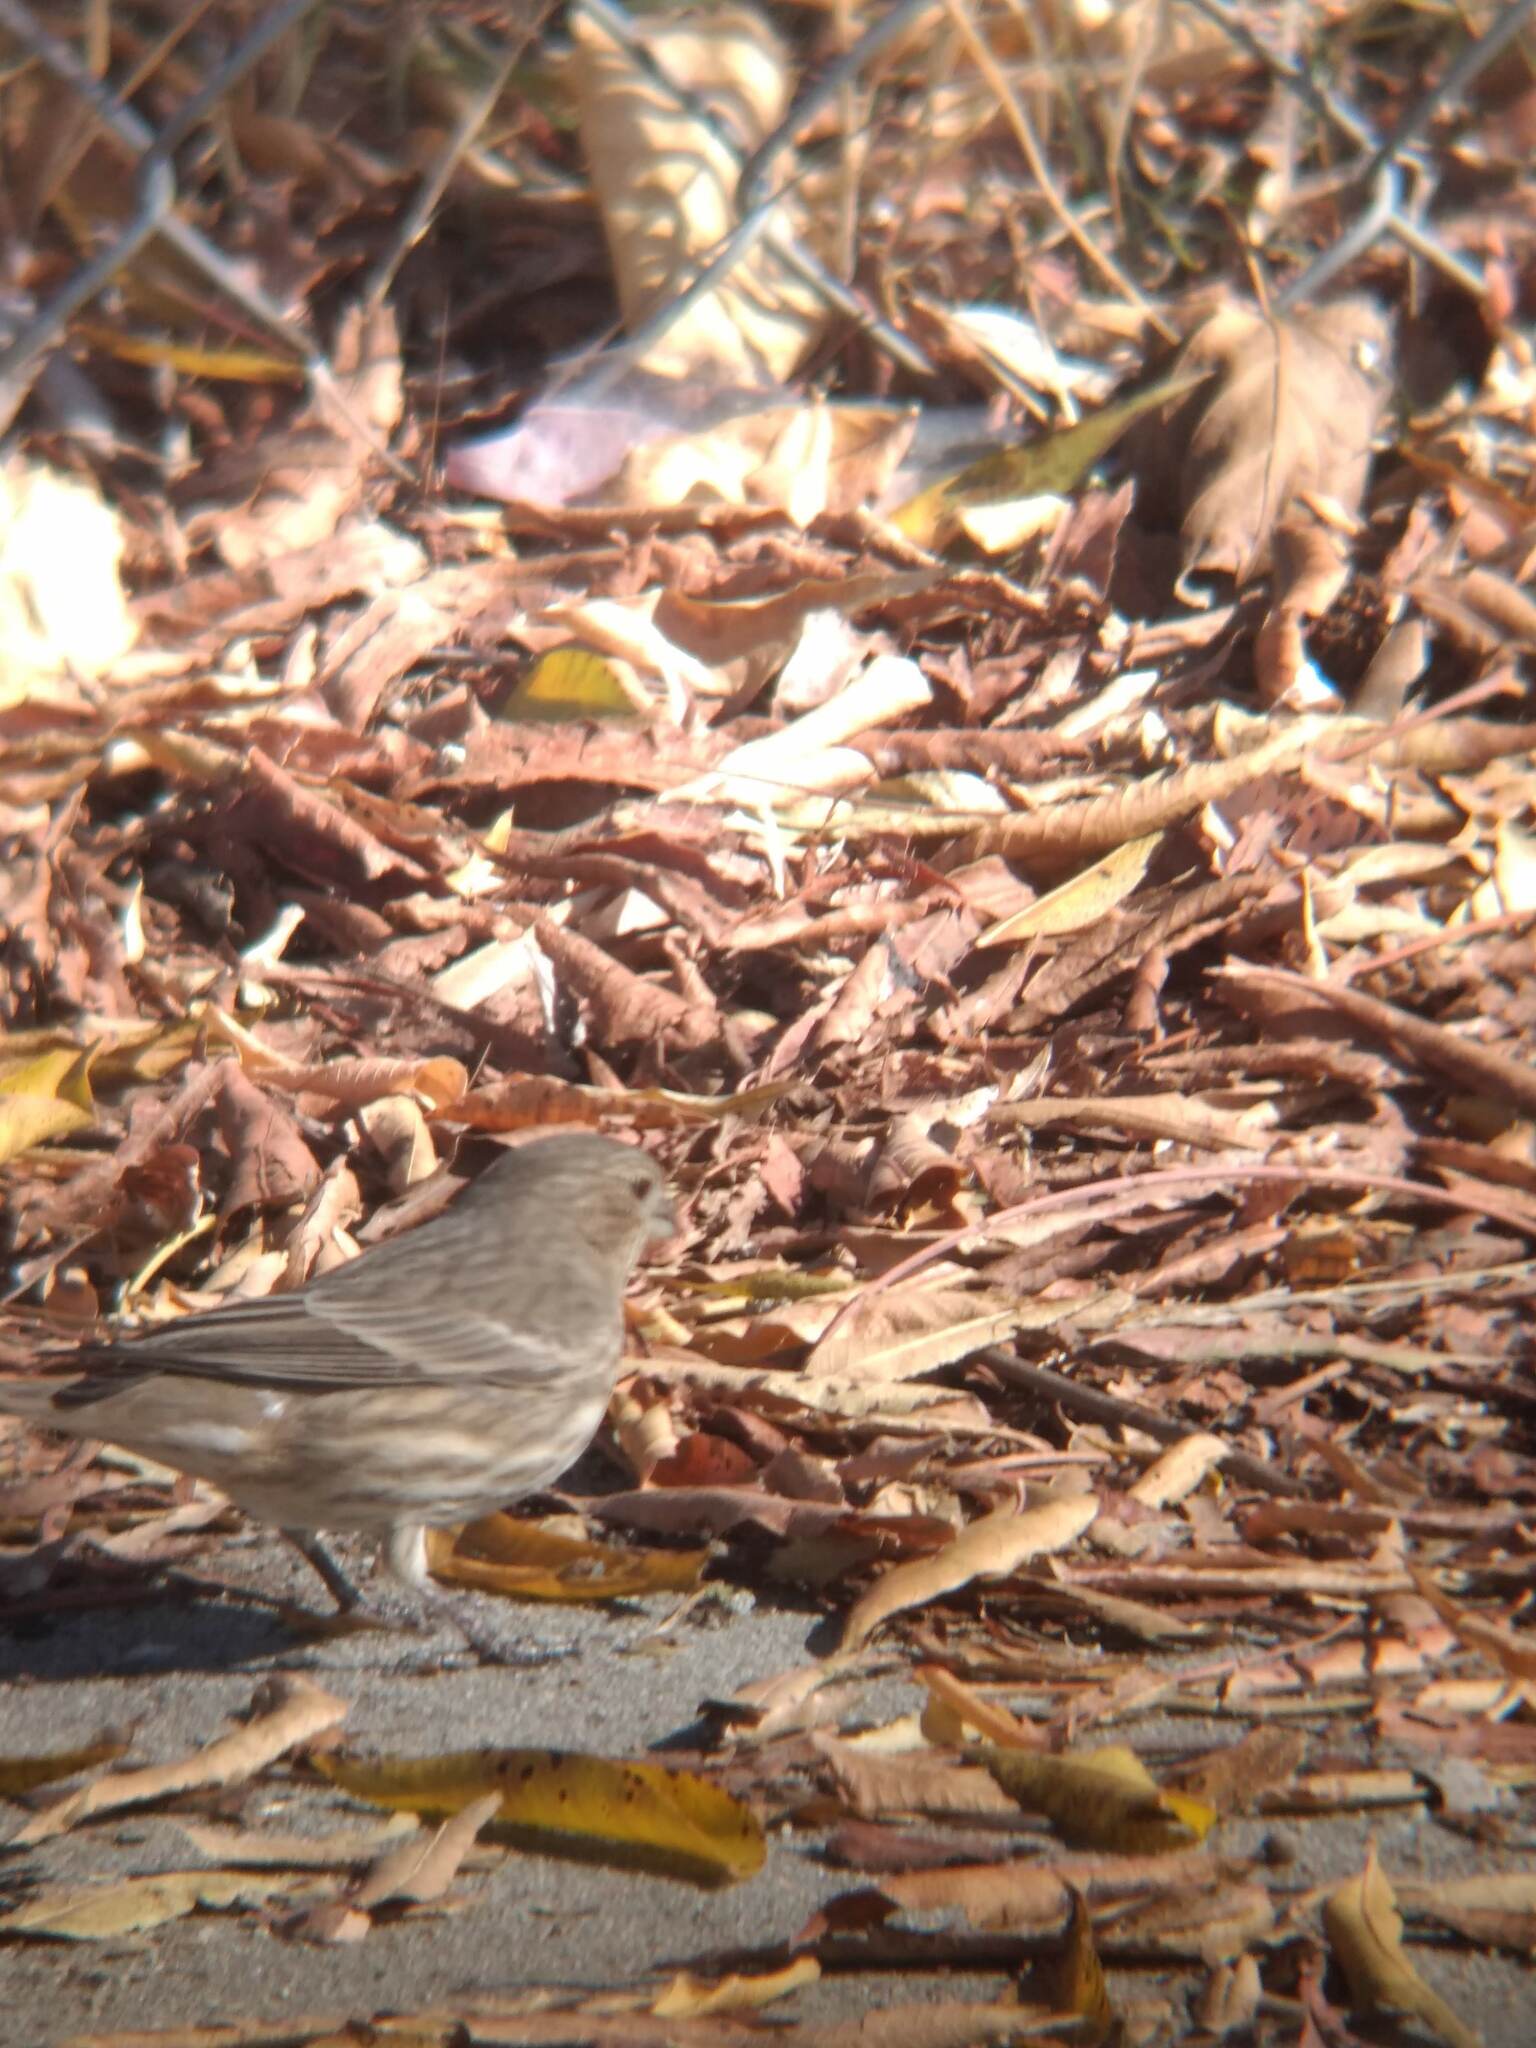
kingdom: Animalia
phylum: Chordata
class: Aves
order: Passeriformes
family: Fringillidae
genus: Haemorhous
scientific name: Haemorhous mexicanus
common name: House finch
